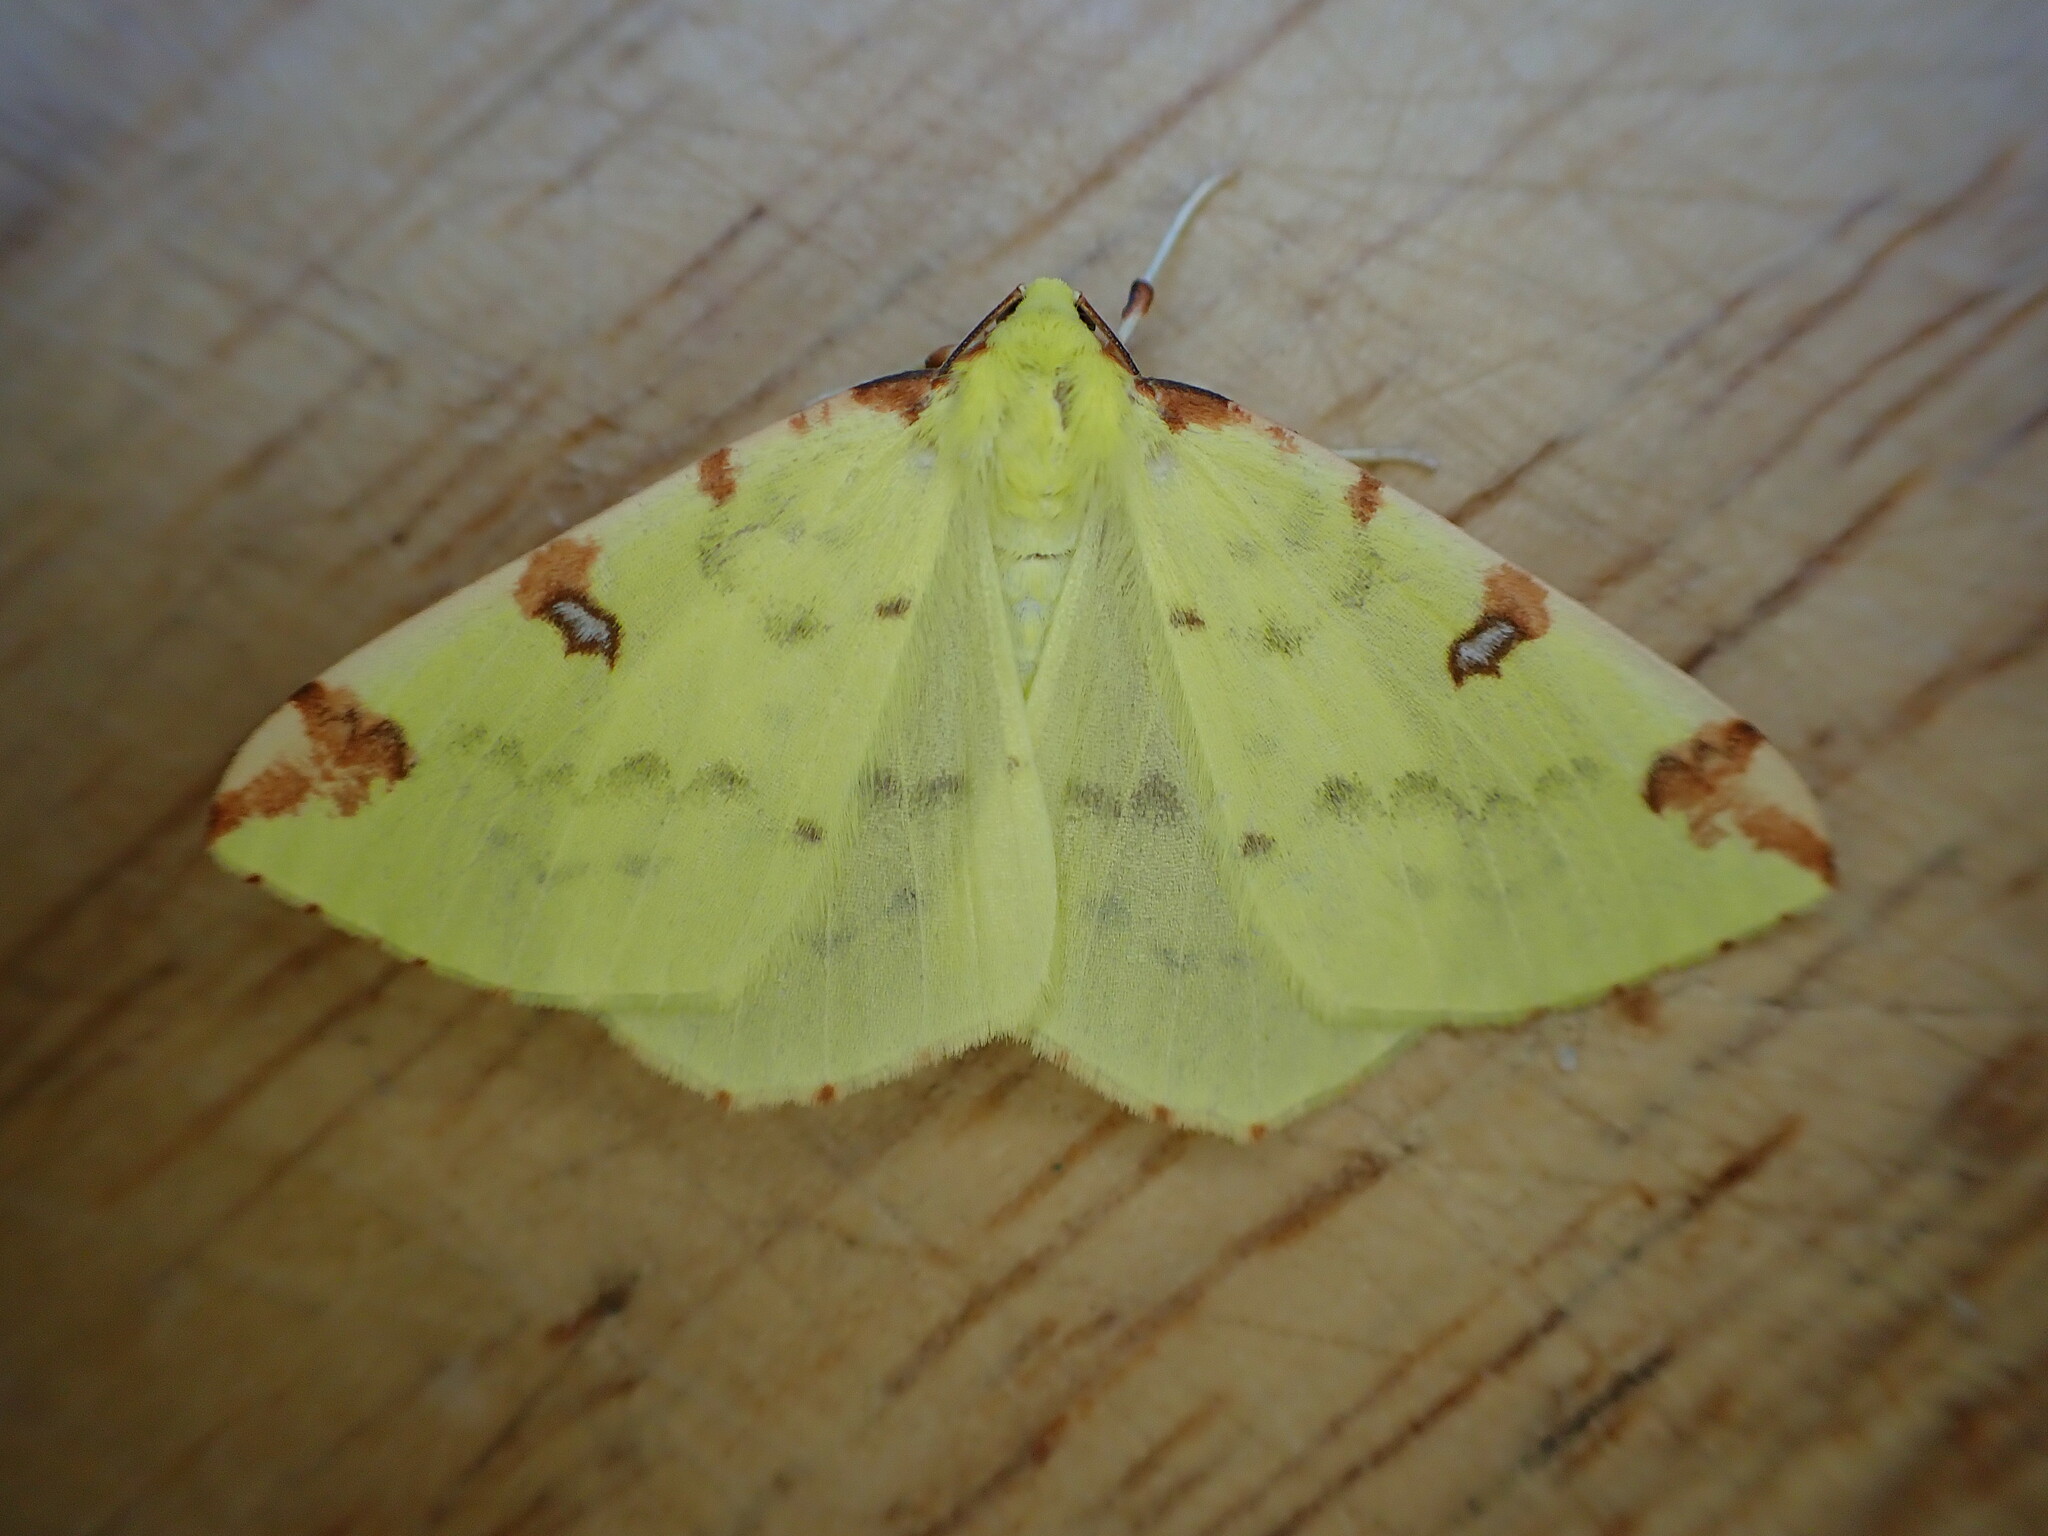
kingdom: Animalia
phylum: Arthropoda
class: Insecta
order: Lepidoptera
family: Geometridae
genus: Opisthograptis
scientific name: Opisthograptis luteolata
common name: Brimstone moth
